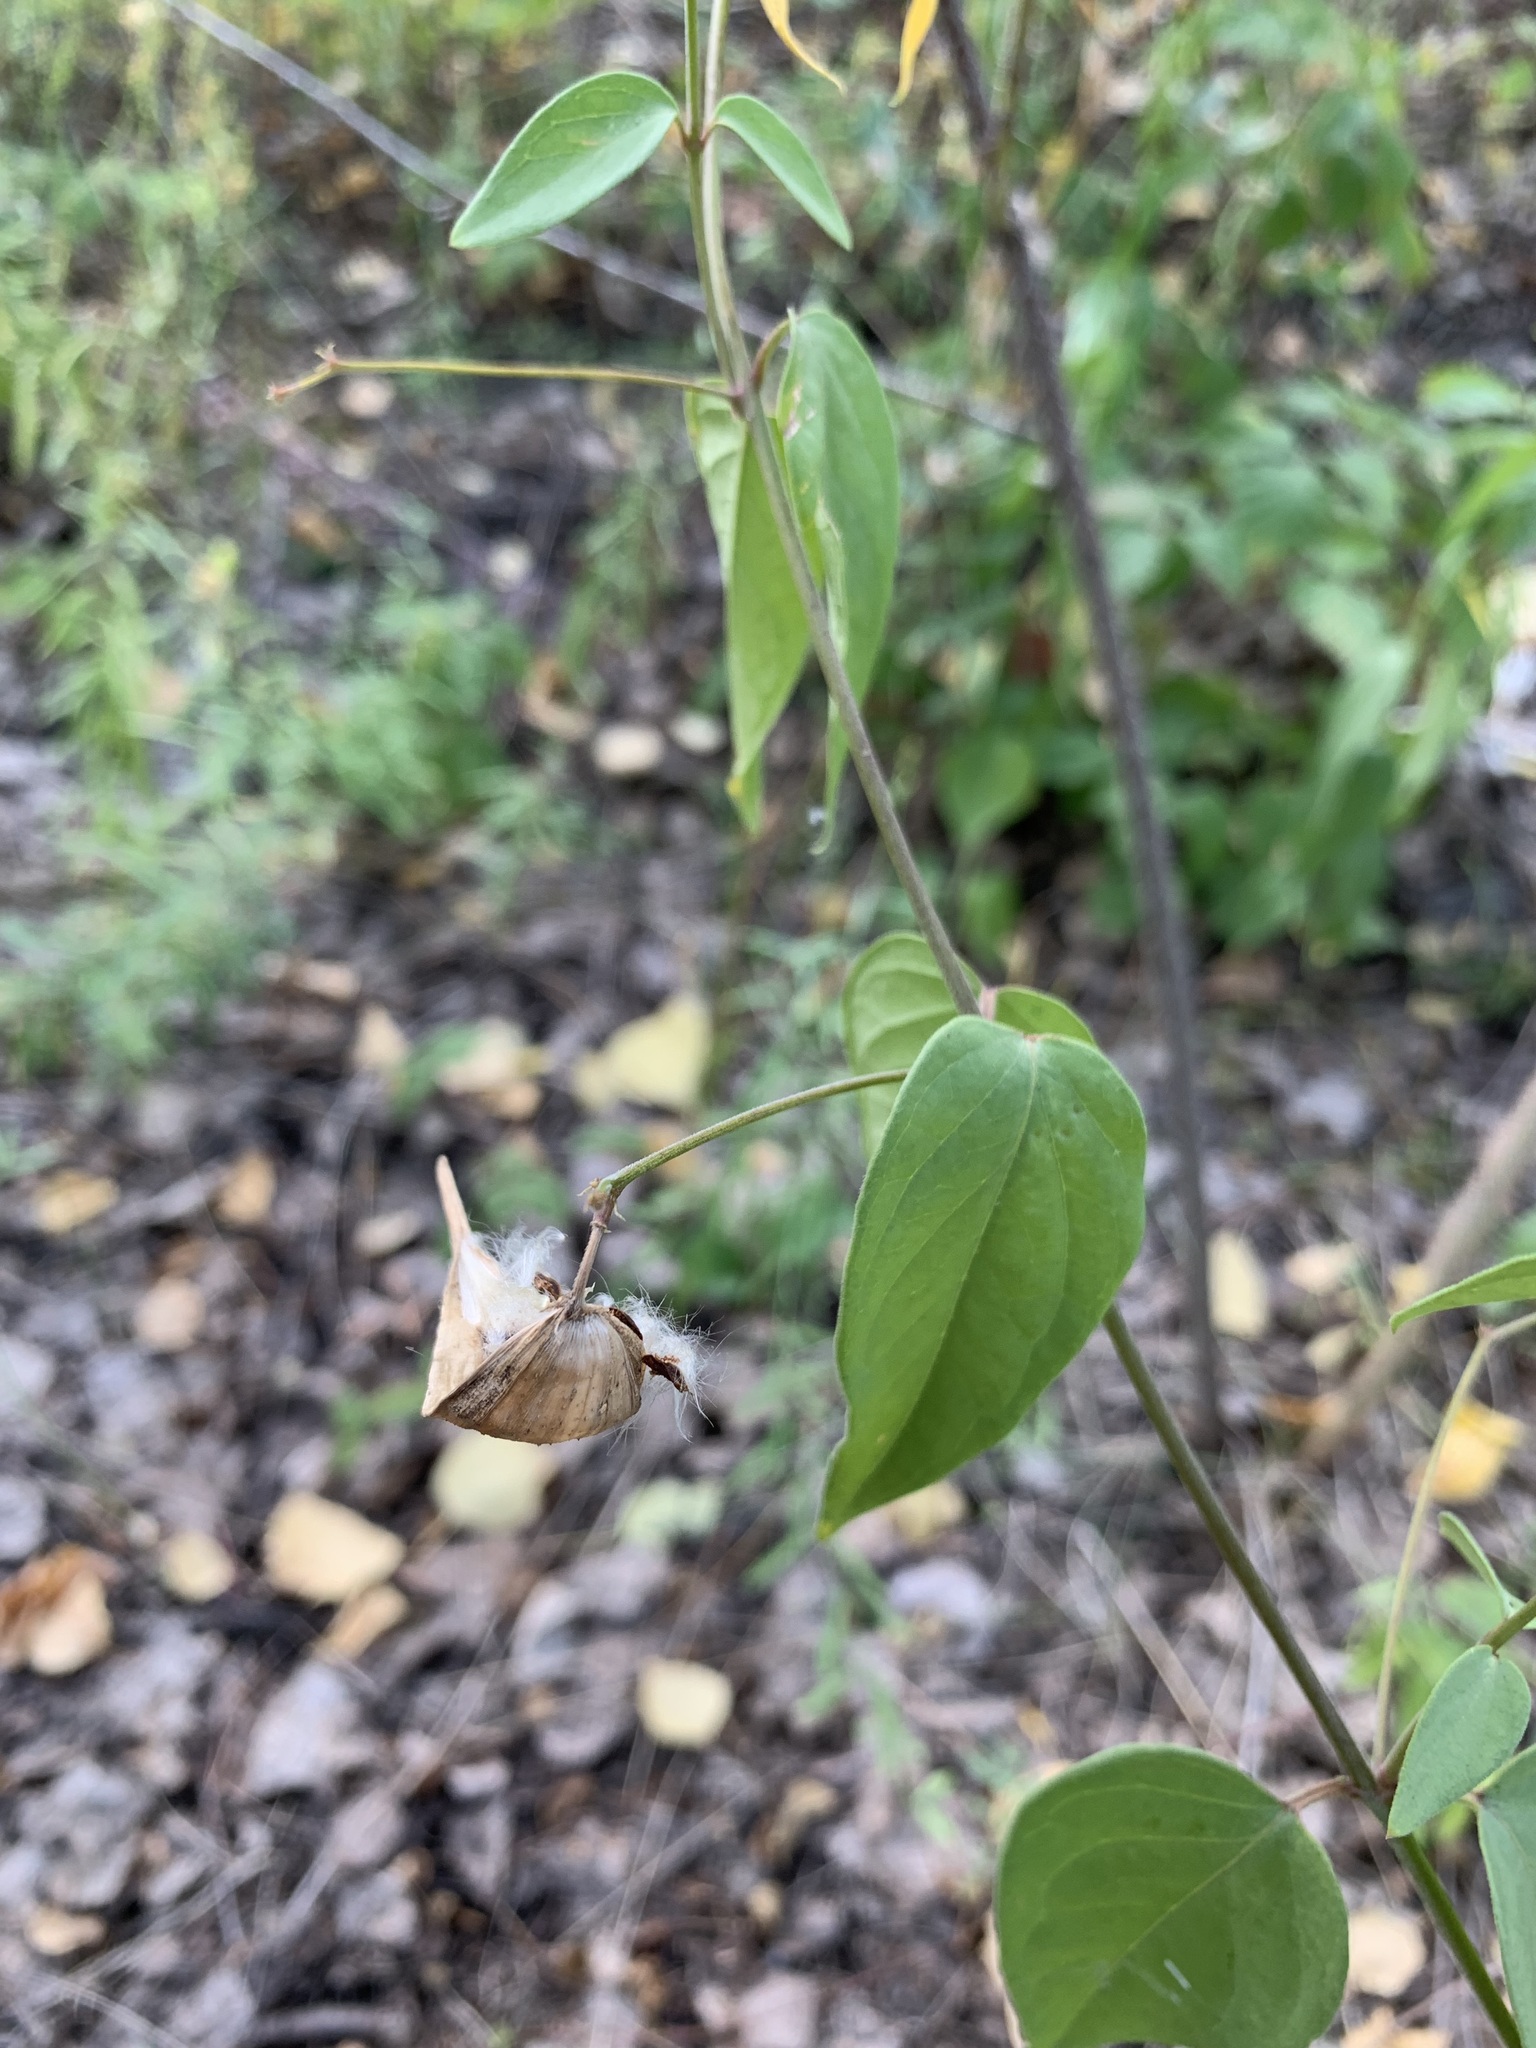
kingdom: Plantae
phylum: Tracheophyta
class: Magnoliopsida
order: Gentianales
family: Apocynaceae
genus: Vincetoxicum
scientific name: Vincetoxicum hirundinaria
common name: White swallowwort
